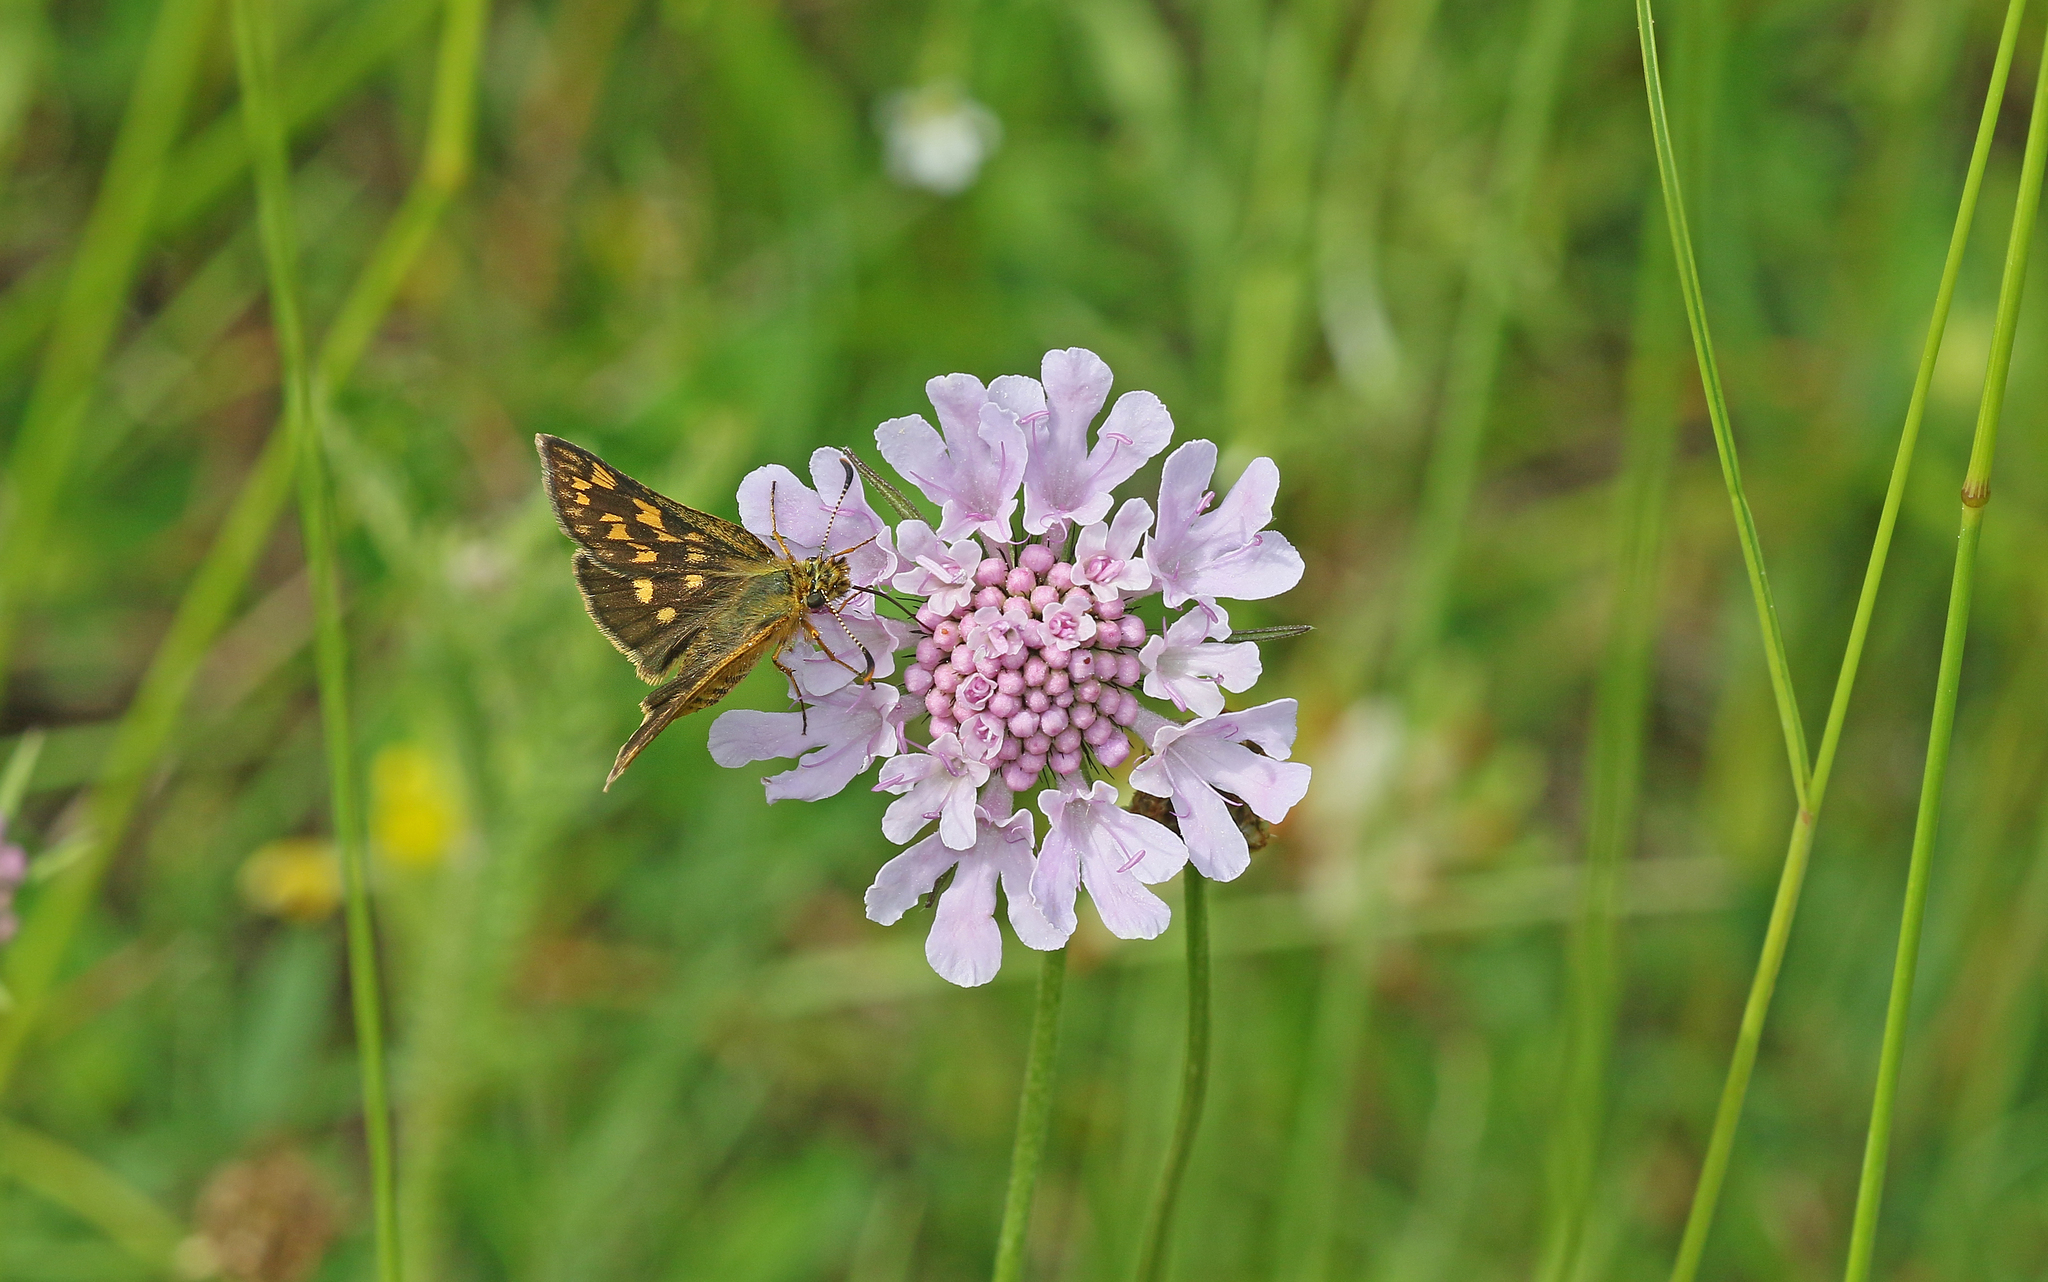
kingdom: Animalia
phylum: Arthropoda
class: Insecta
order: Lepidoptera
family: Hesperiidae
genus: Carterocephalus
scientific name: Carterocephalus palaemon
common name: Chequered skipper
